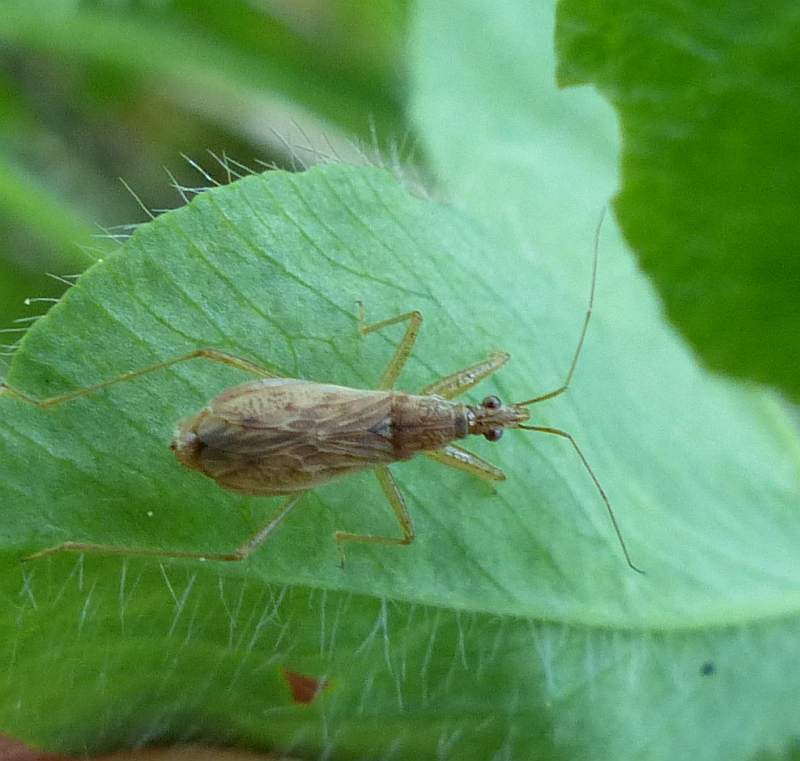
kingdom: Animalia
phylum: Arthropoda
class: Insecta
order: Hemiptera
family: Nabidae
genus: Nabis
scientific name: Nabis rufusculus
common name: Short-winged nabis
